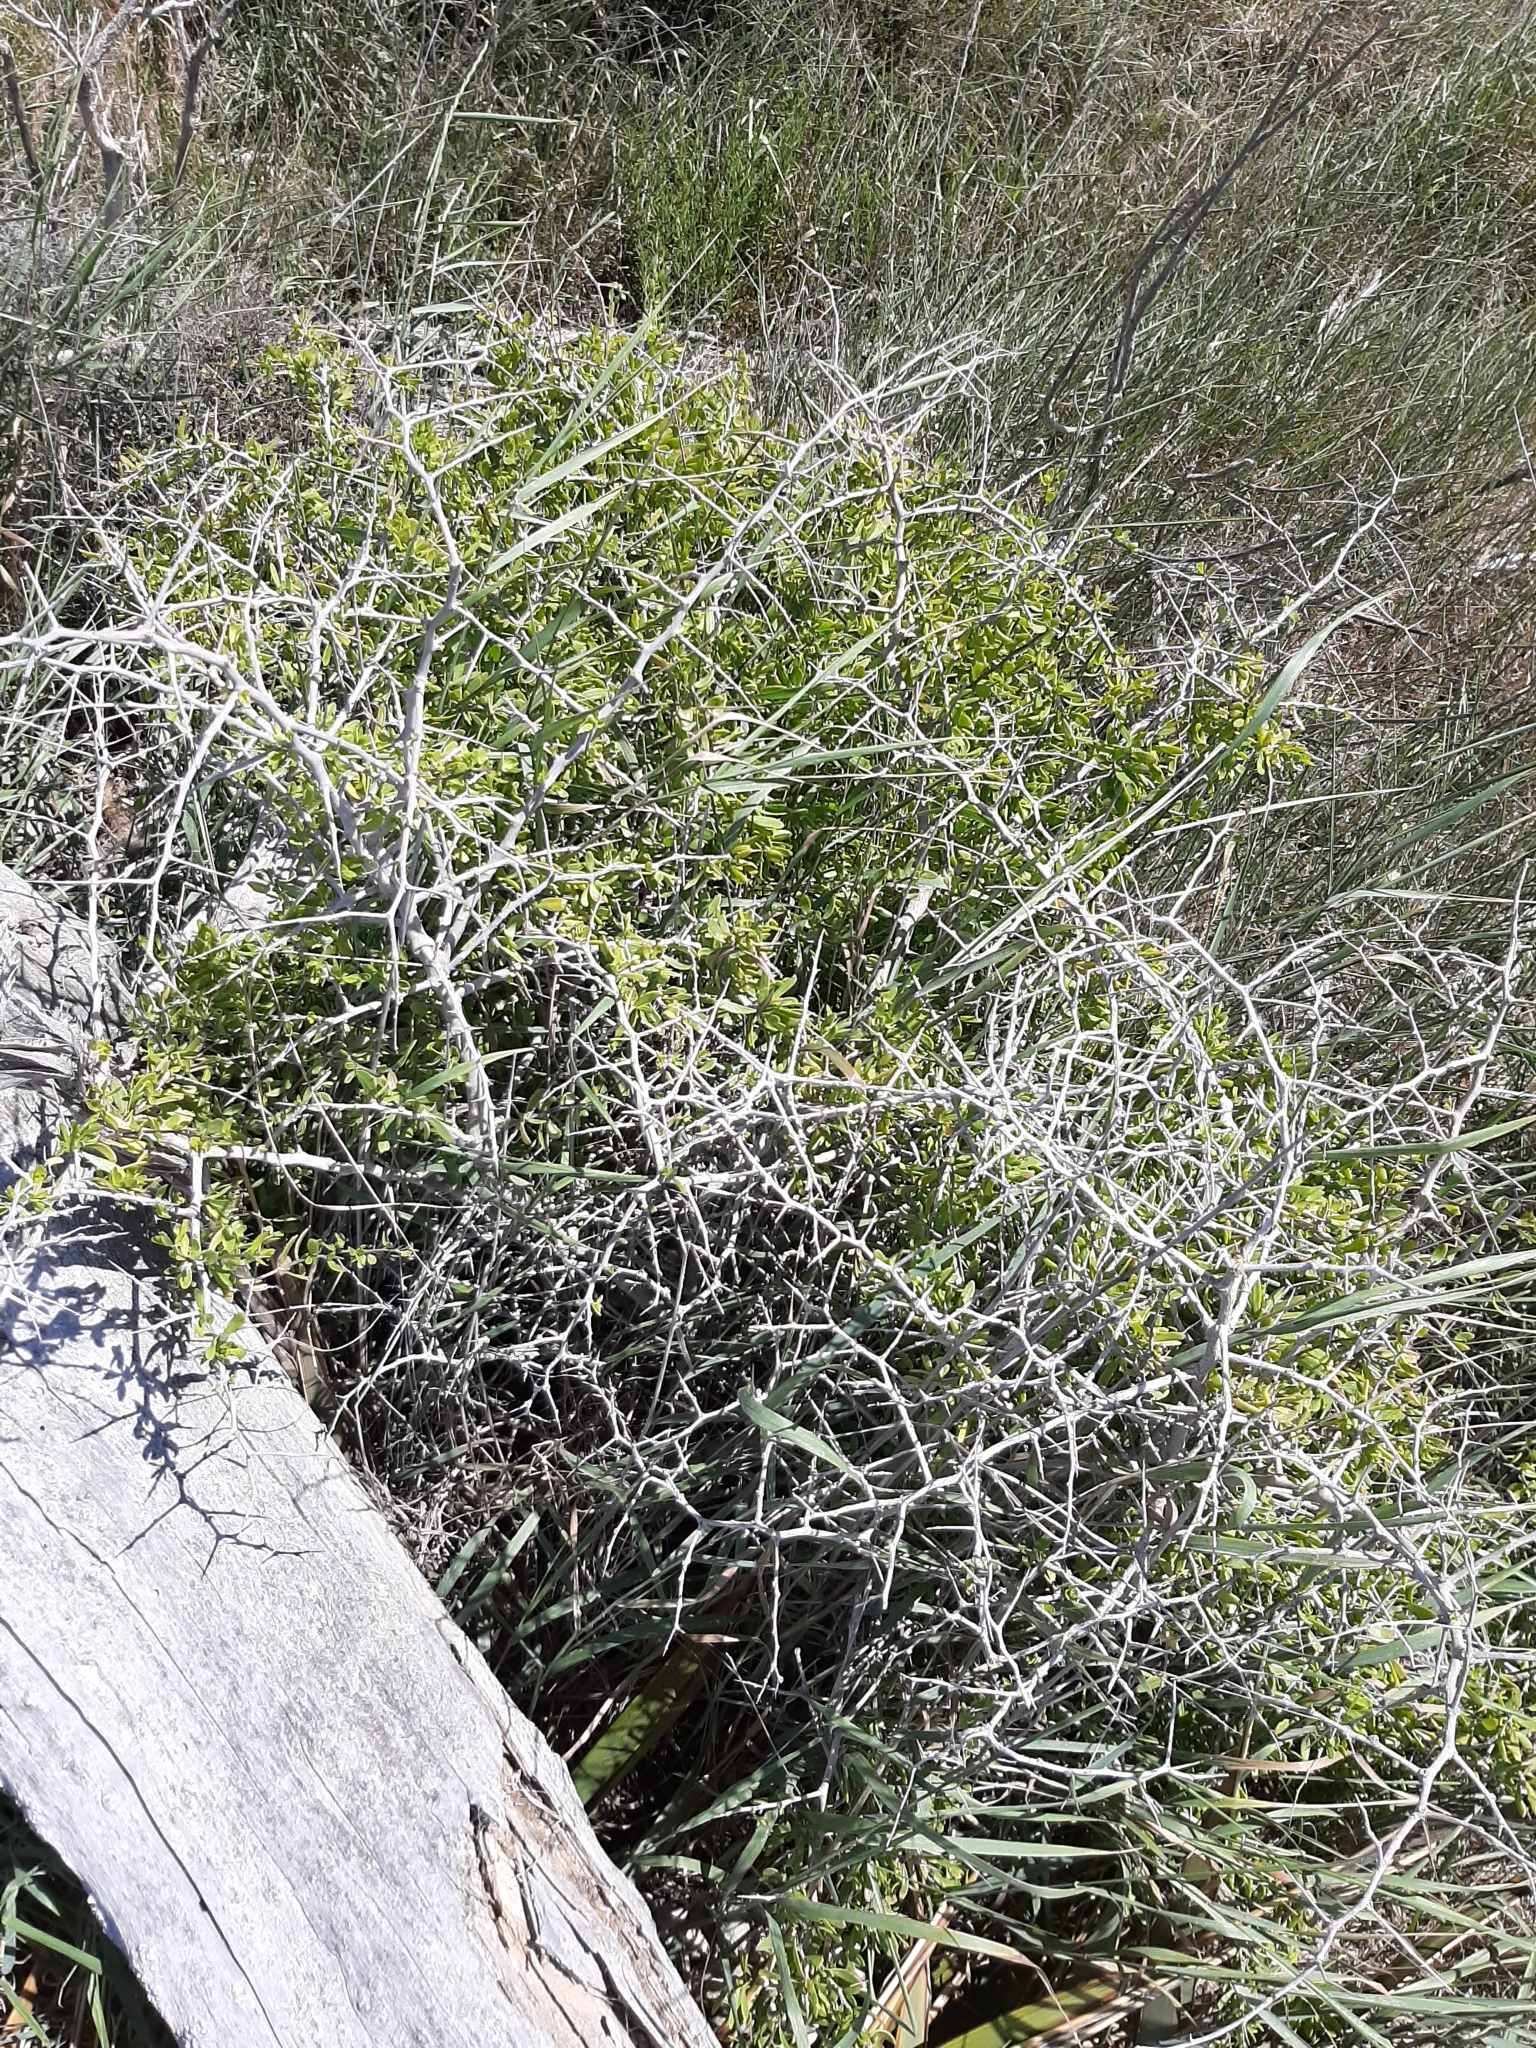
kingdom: Plantae
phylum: Tracheophyta
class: Magnoliopsida
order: Solanales
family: Solanaceae
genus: Lycium
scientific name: Lycium ferocissimum
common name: African boxthorn
